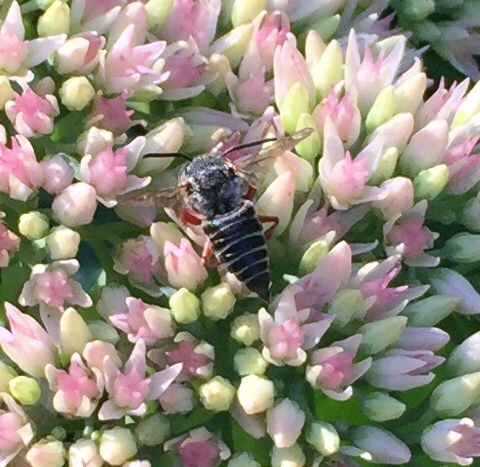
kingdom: Animalia
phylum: Arthropoda
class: Insecta
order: Hymenoptera
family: Megachilidae
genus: Coelioxys
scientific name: Coelioxys
